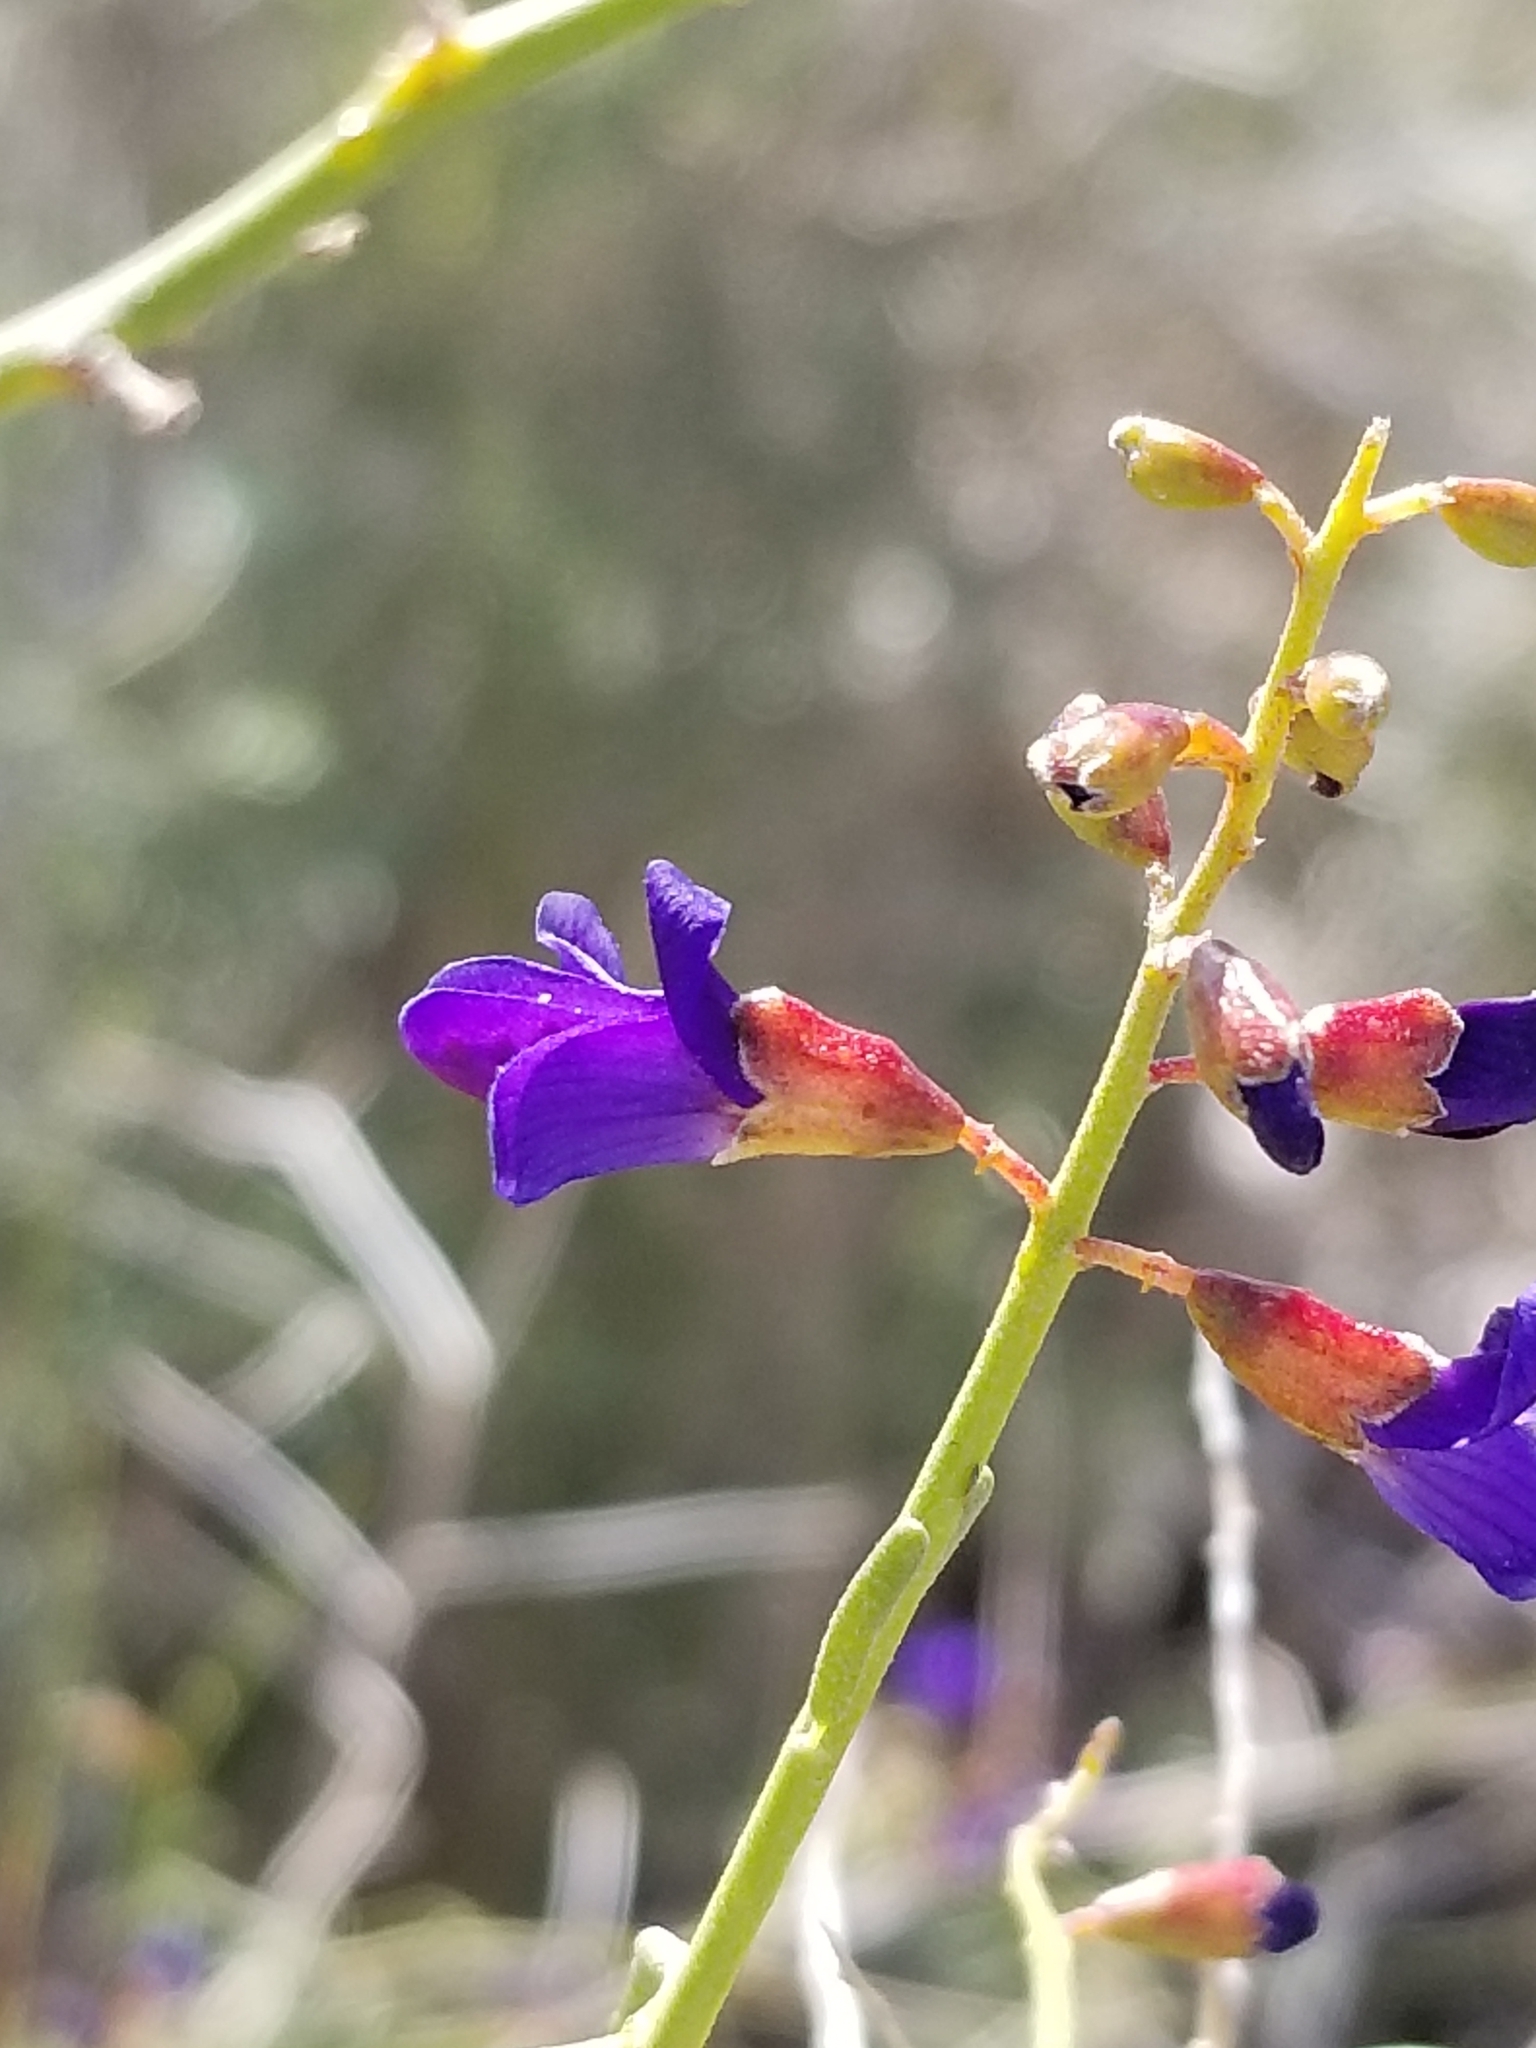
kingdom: Plantae
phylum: Tracheophyta
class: Magnoliopsida
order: Fabales
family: Fabaceae
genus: Psorothamnus
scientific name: Psorothamnus schottii
